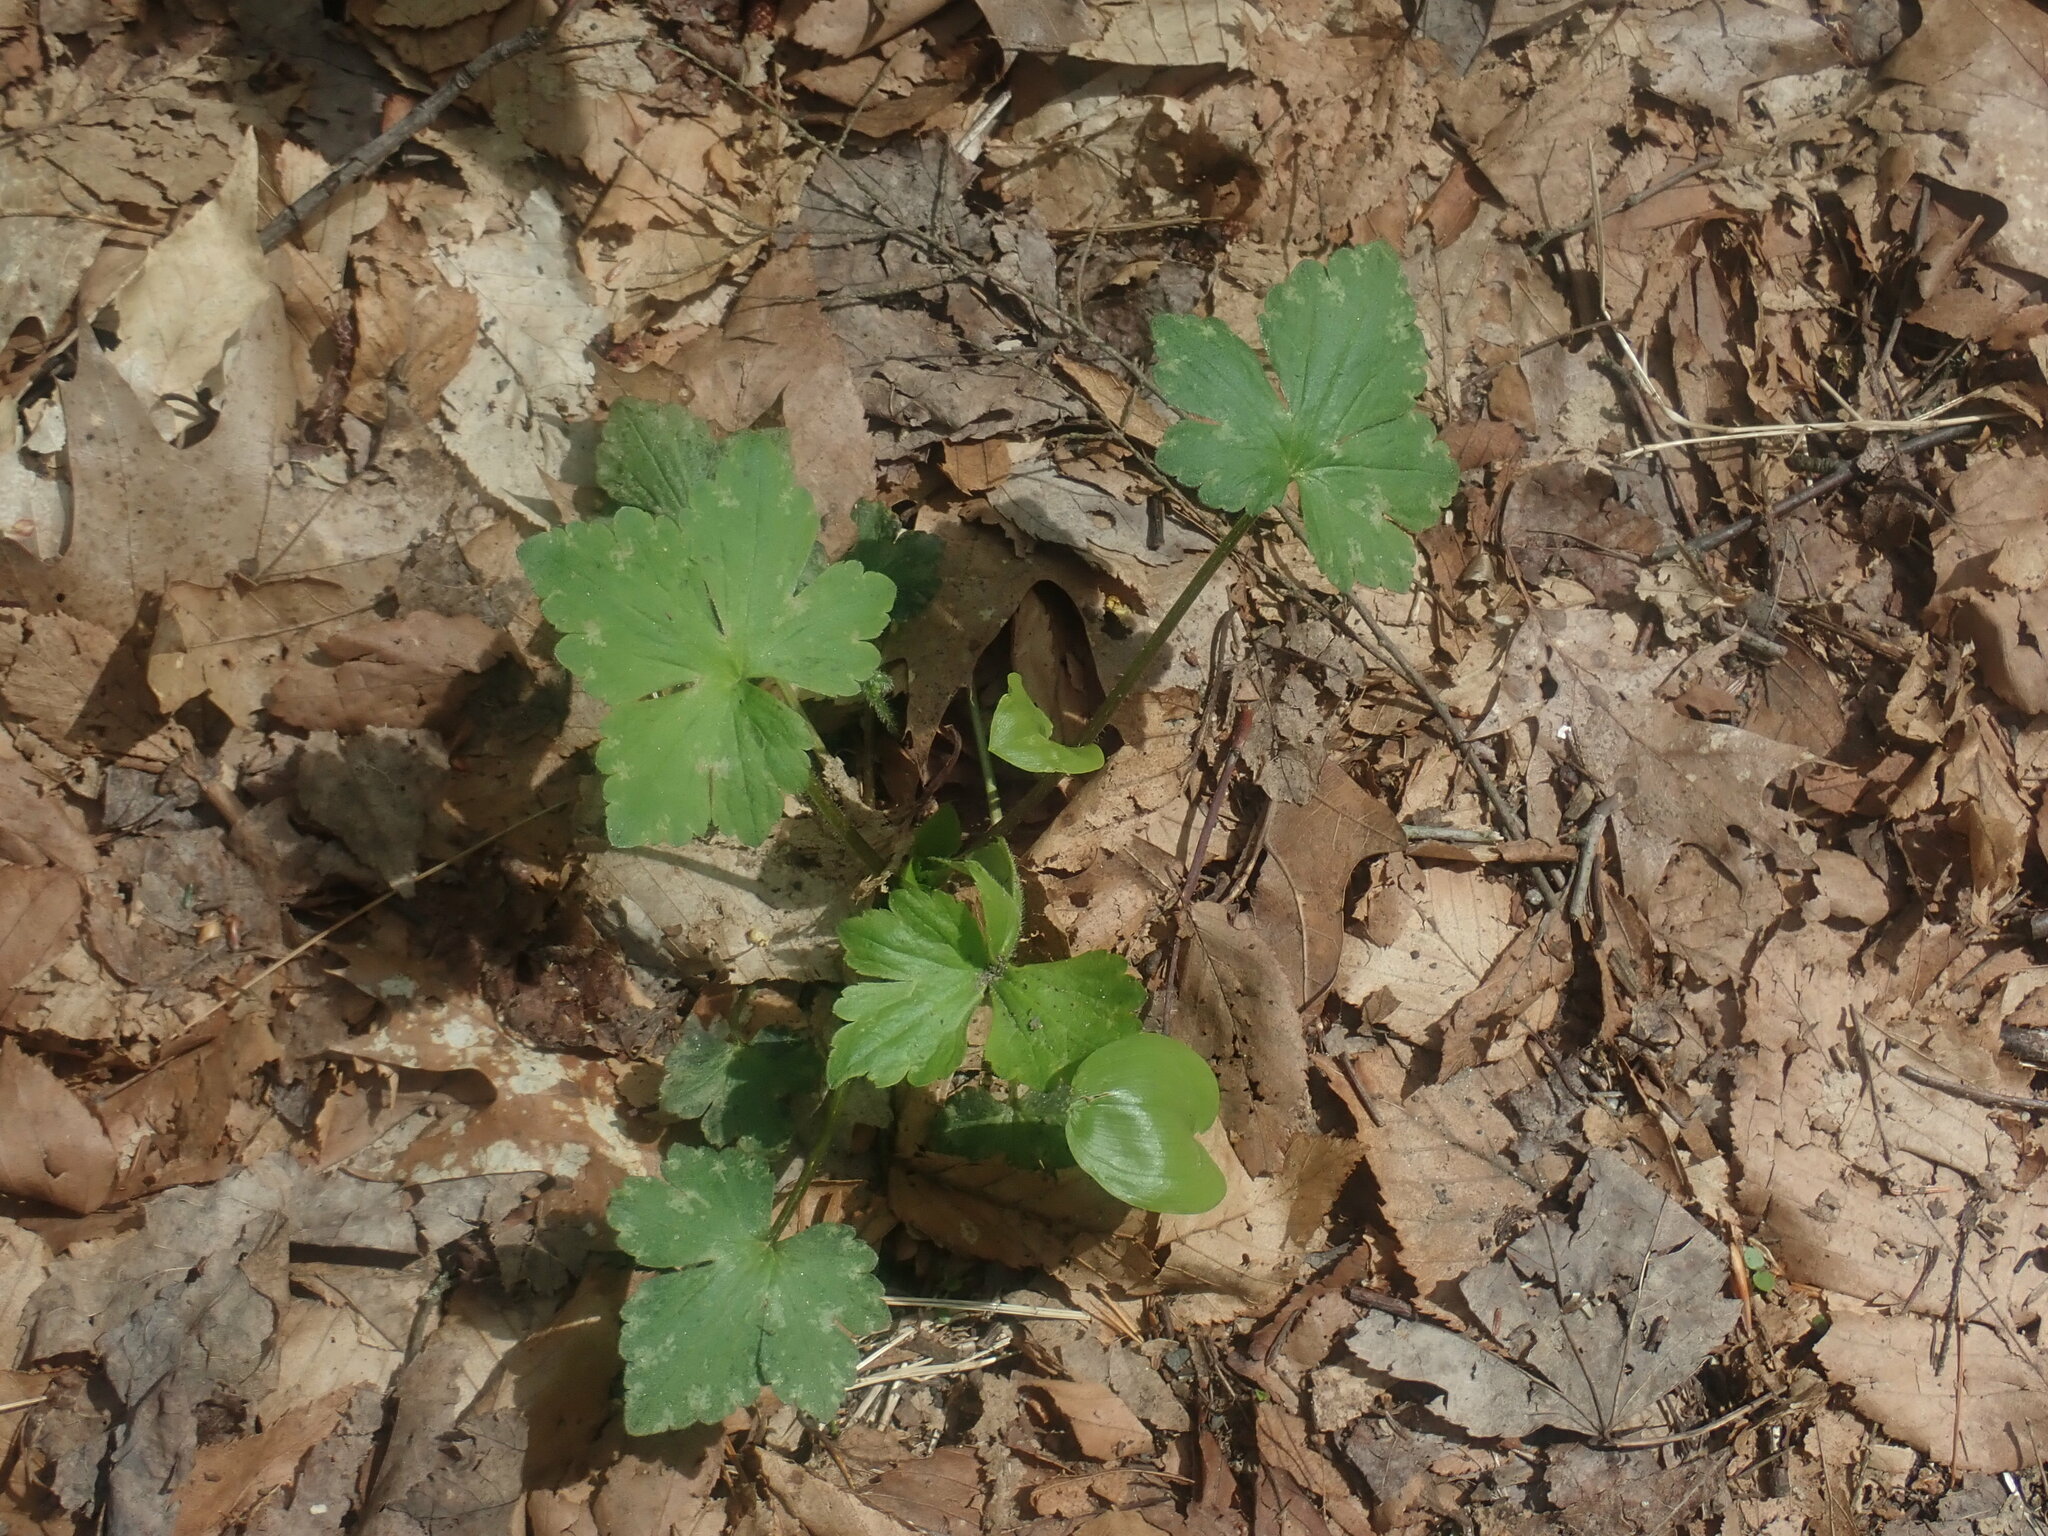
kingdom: Plantae
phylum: Tracheophyta
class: Magnoliopsida
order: Ranunculales
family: Ranunculaceae
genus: Ranunculus
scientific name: Ranunculus recurvatus
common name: Blisterwort
